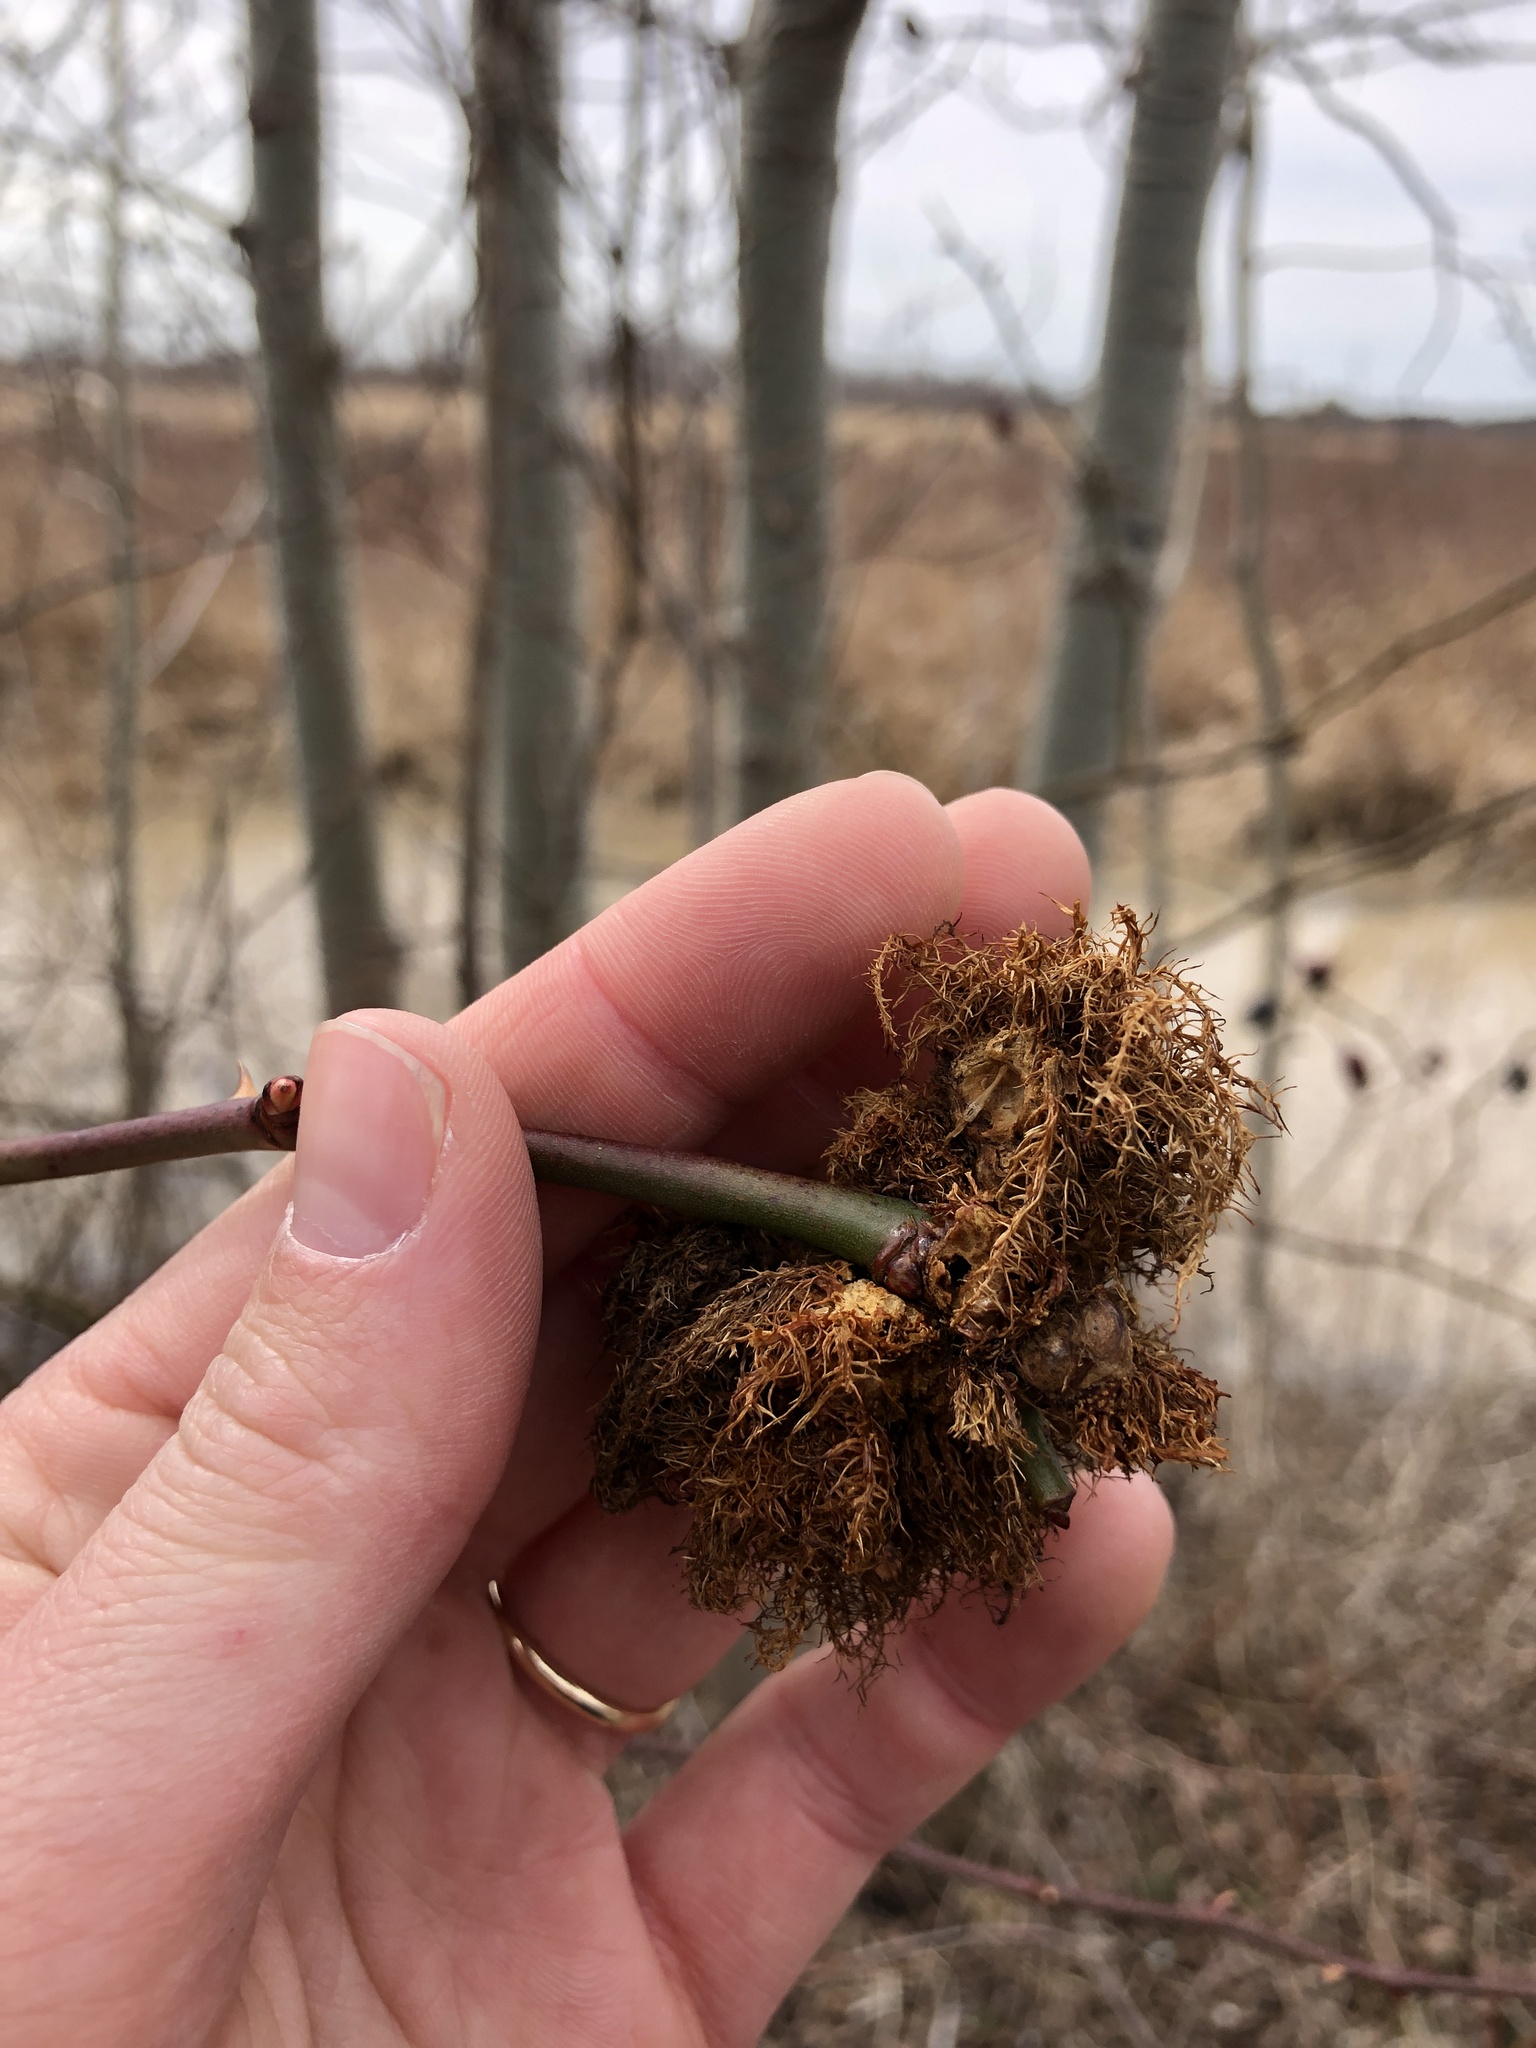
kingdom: Animalia
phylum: Arthropoda
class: Insecta
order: Hymenoptera
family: Cynipidae
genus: Diplolepis
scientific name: Diplolepis rosae
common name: Bedeguar gall
